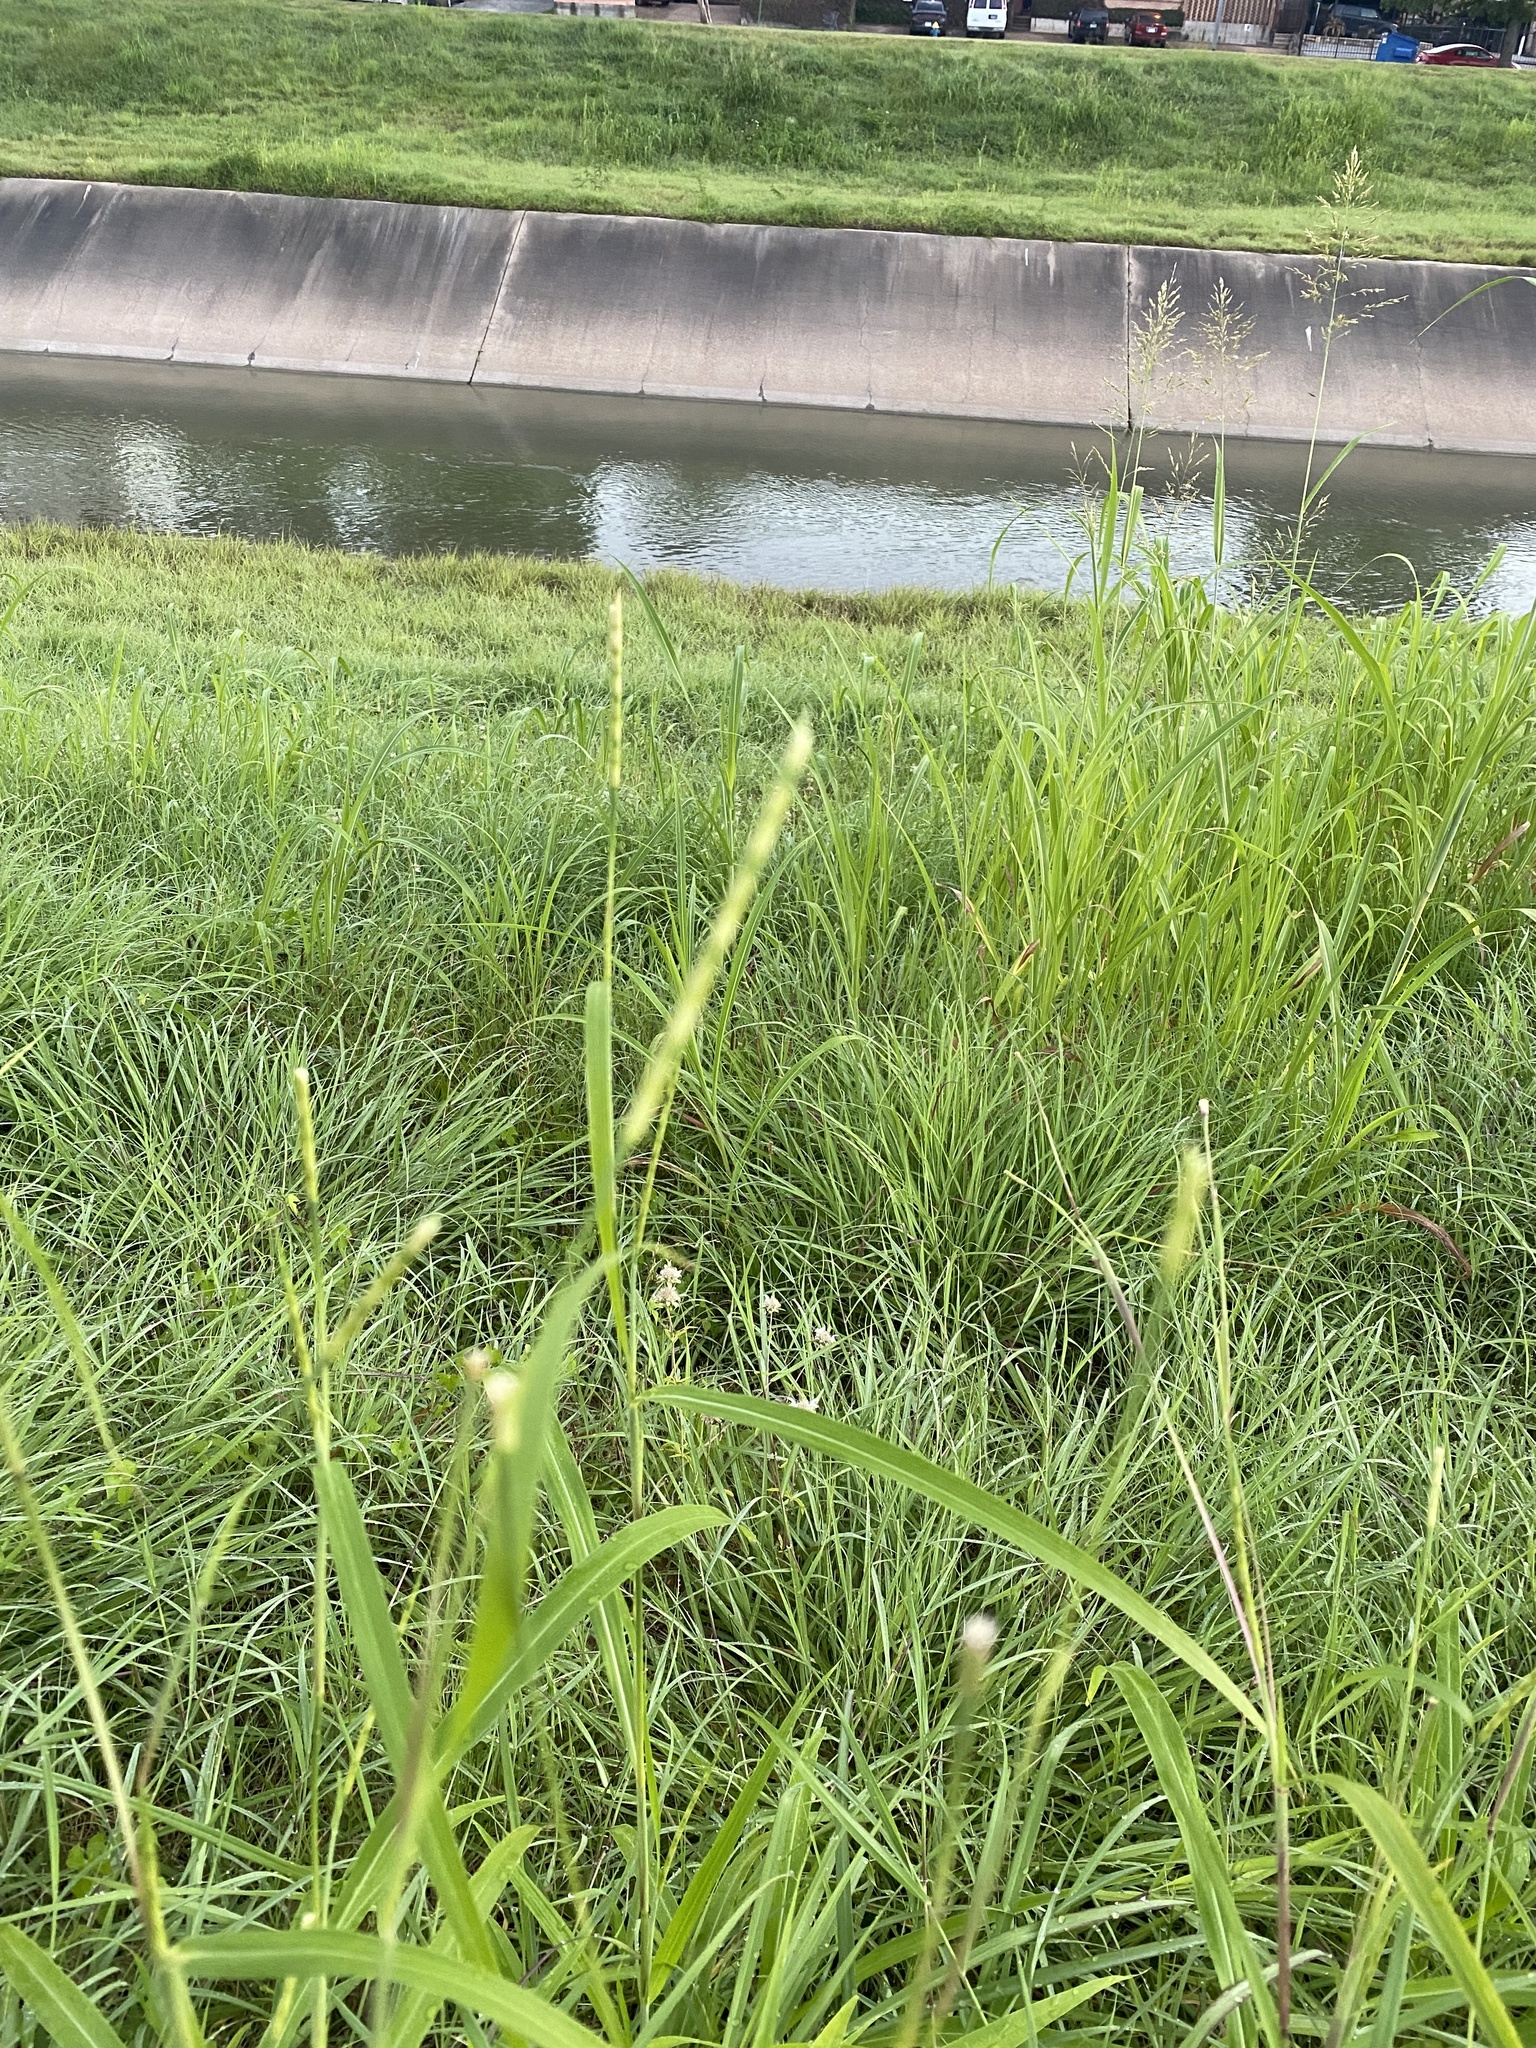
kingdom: Plantae
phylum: Tracheophyta
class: Liliopsida
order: Poales
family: Poaceae
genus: Tripsacum
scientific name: Tripsacum dactyloides
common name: Buffalo-grass
